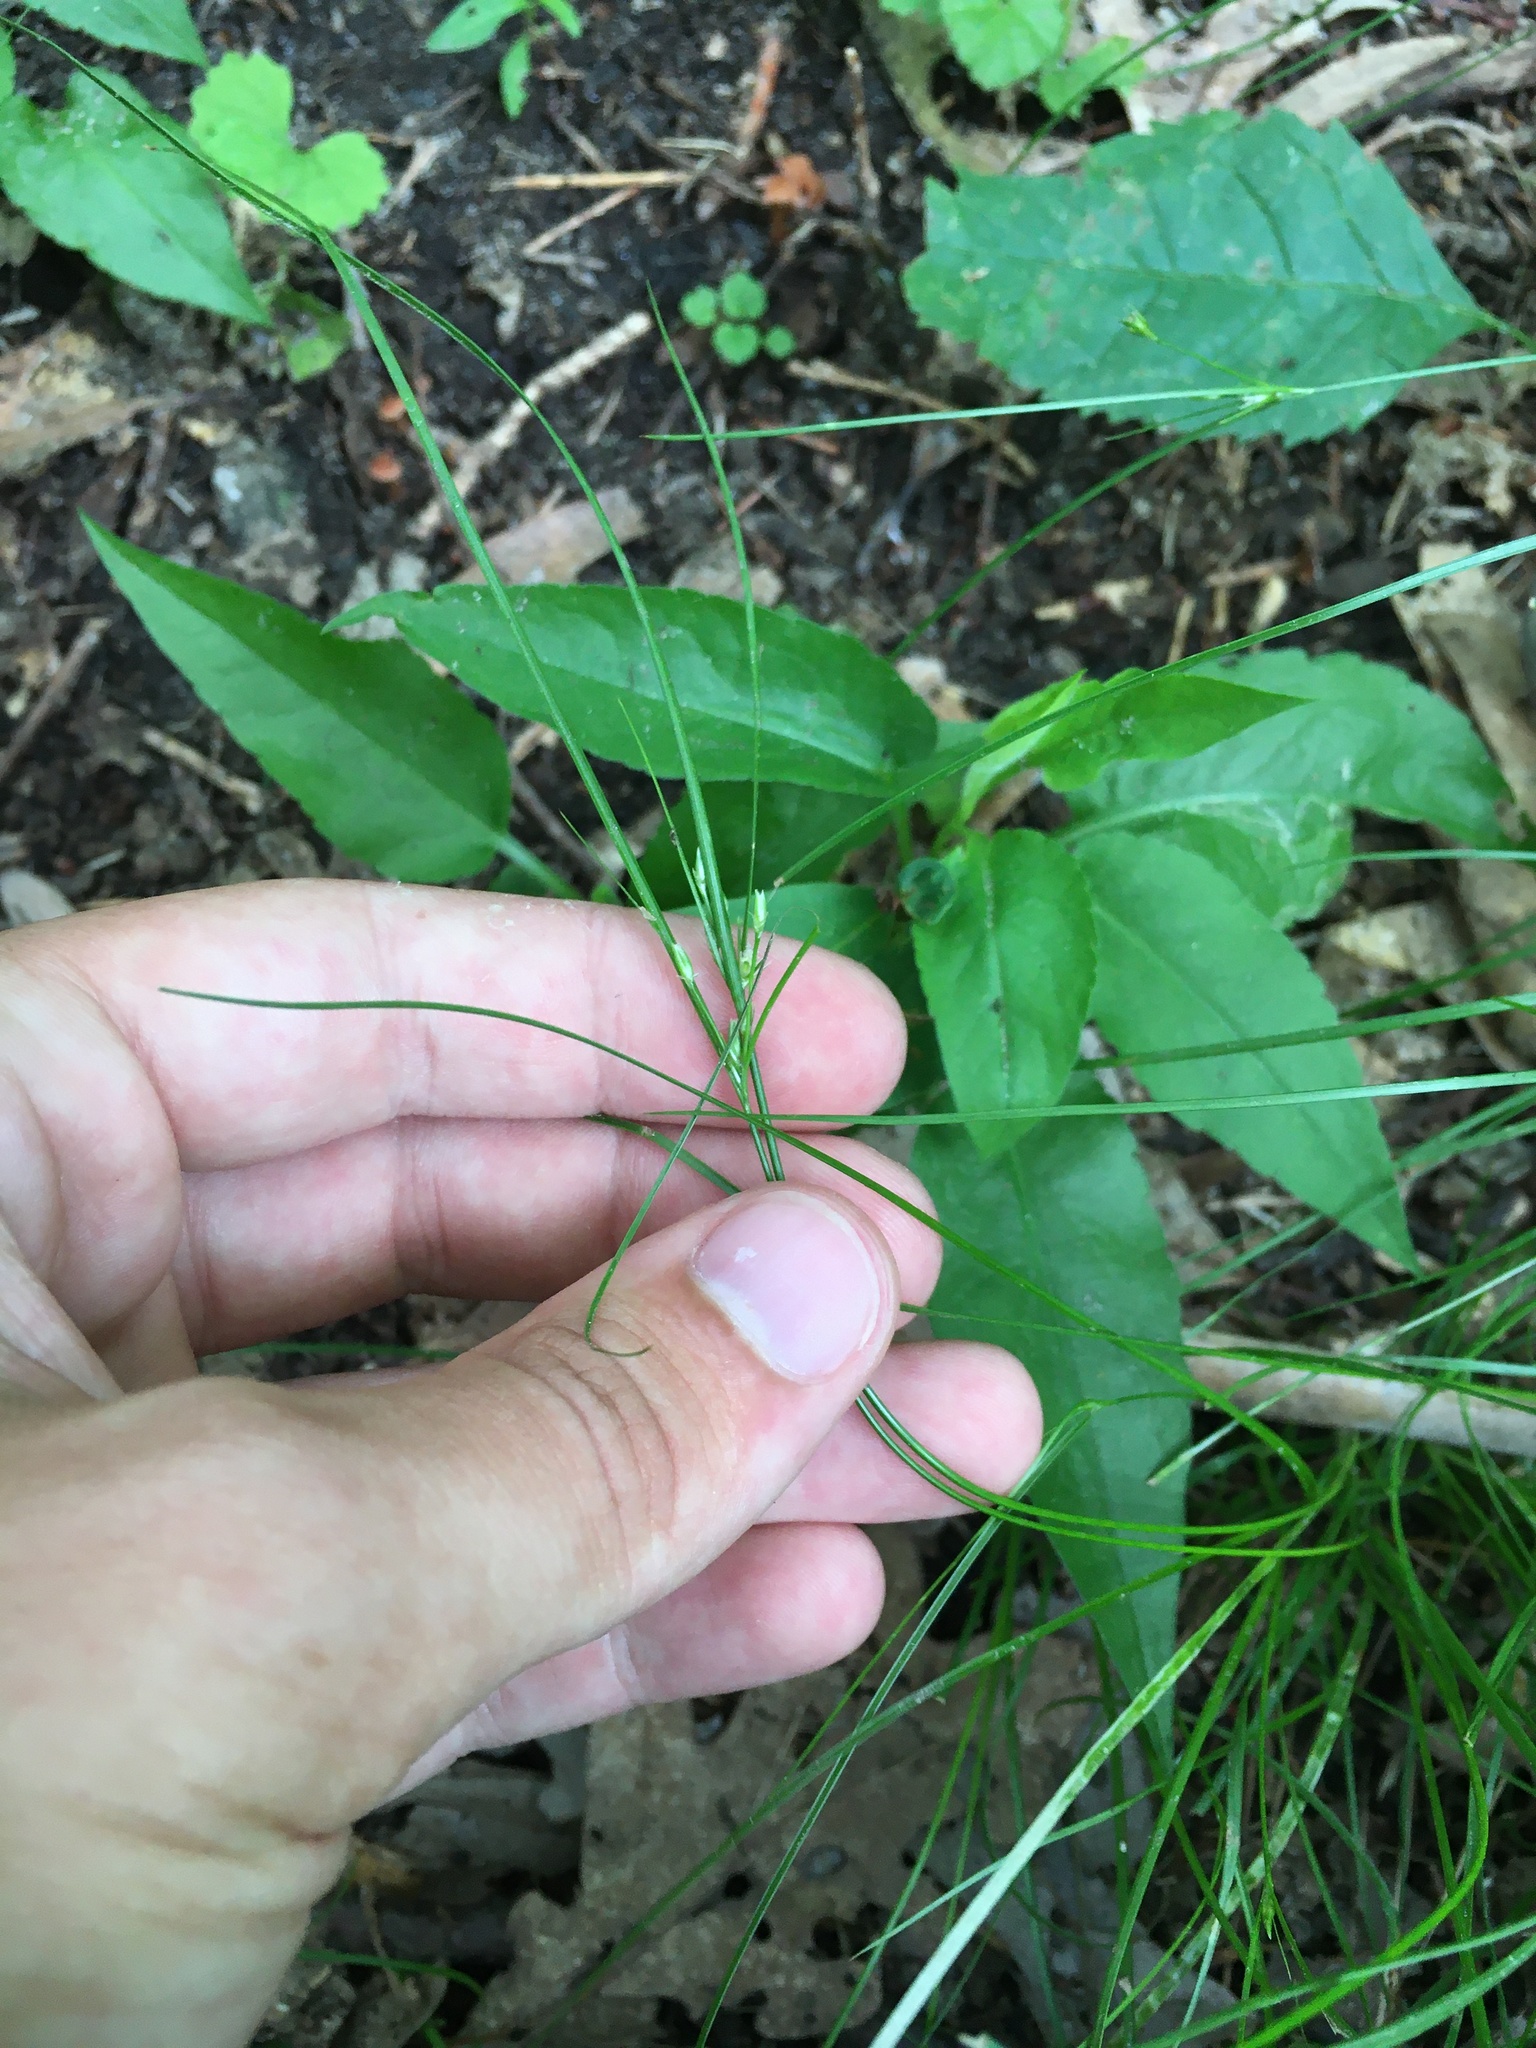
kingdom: Plantae
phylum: Tracheophyta
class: Liliopsida
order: Poales
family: Juncaceae
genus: Juncus
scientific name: Juncus tenuis
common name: Slender rush
